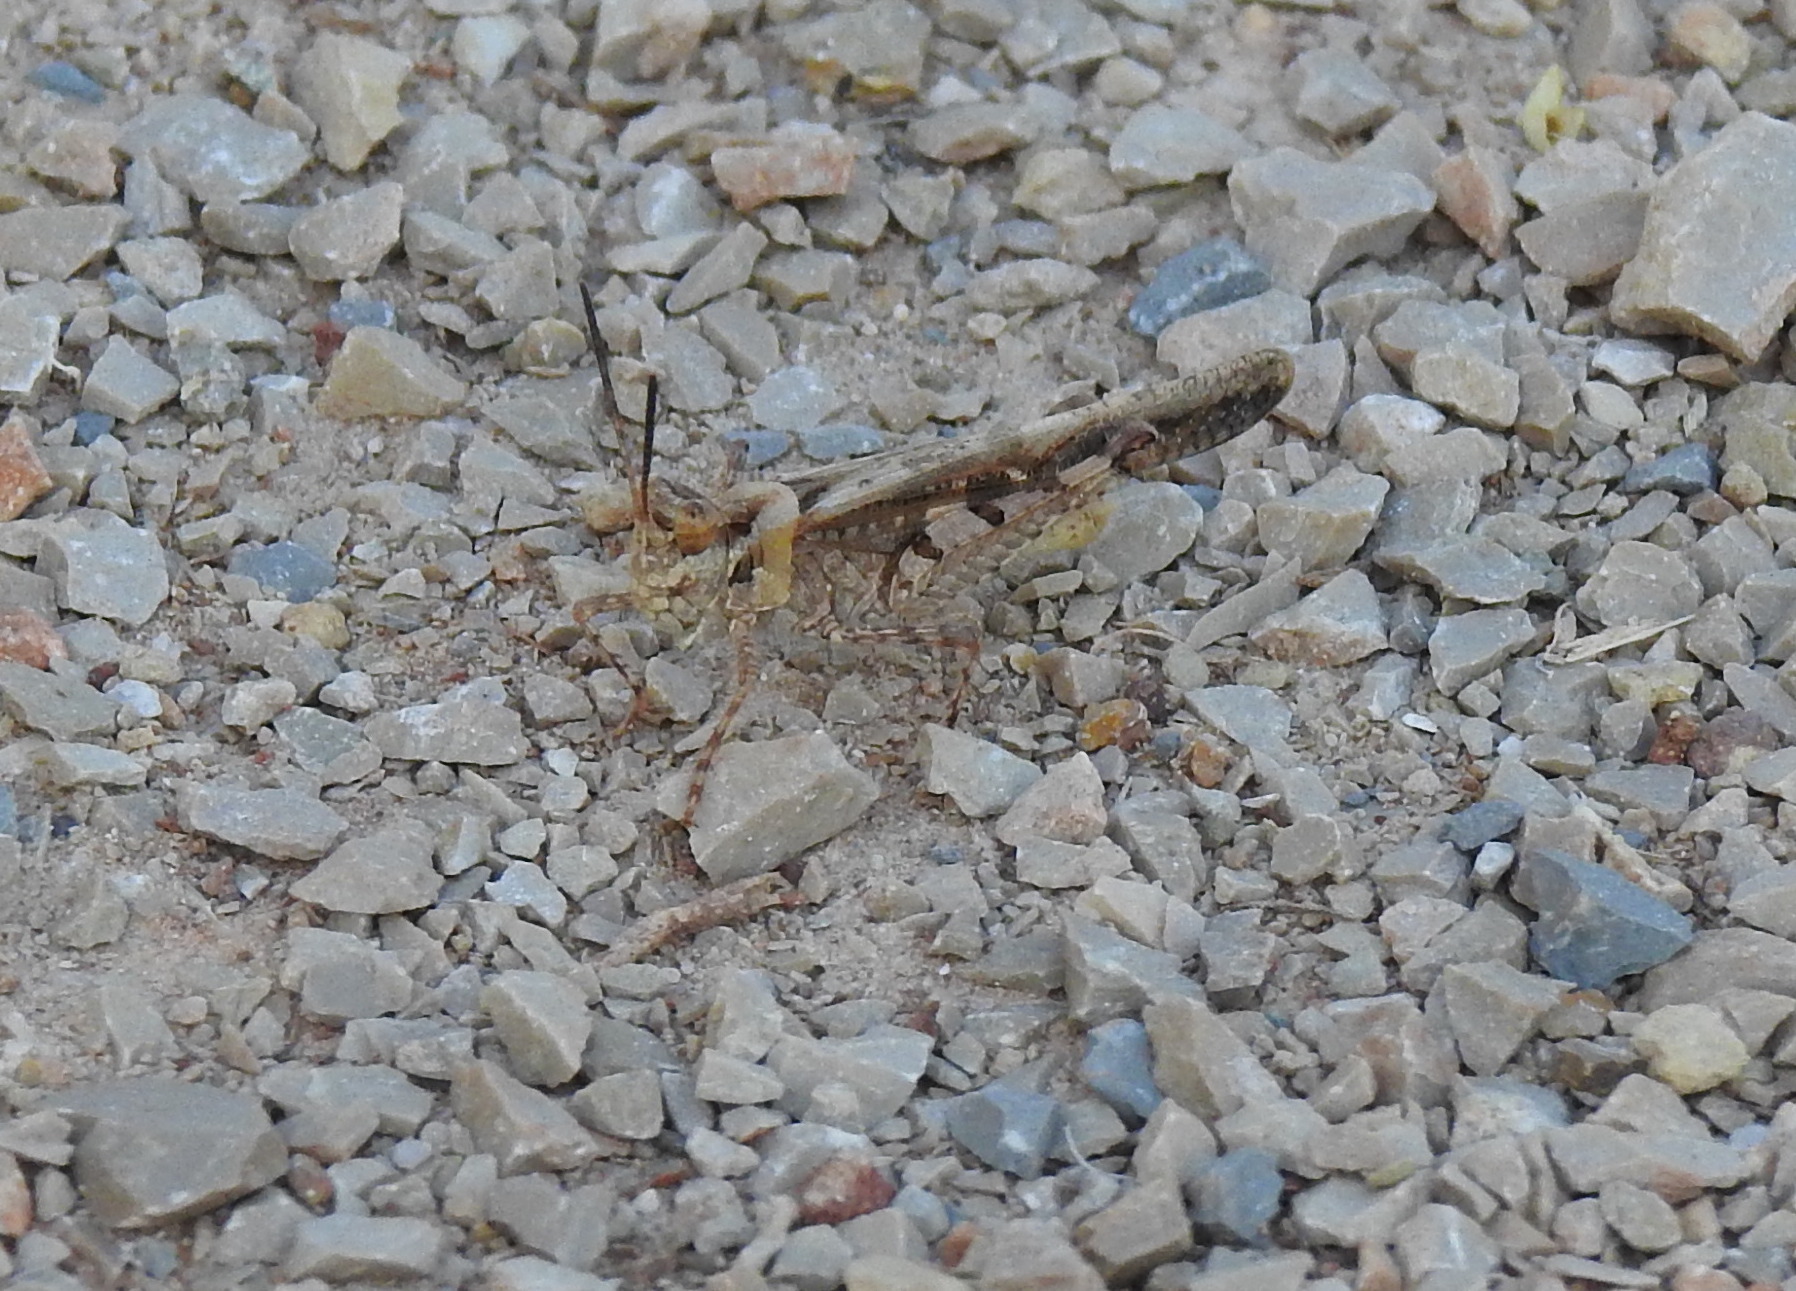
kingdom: Animalia
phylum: Arthropoda
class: Insecta
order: Orthoptera
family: Acrididae
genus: Acrotylus
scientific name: Acrotylus patruelis
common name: Slender burrowing grasshopper
